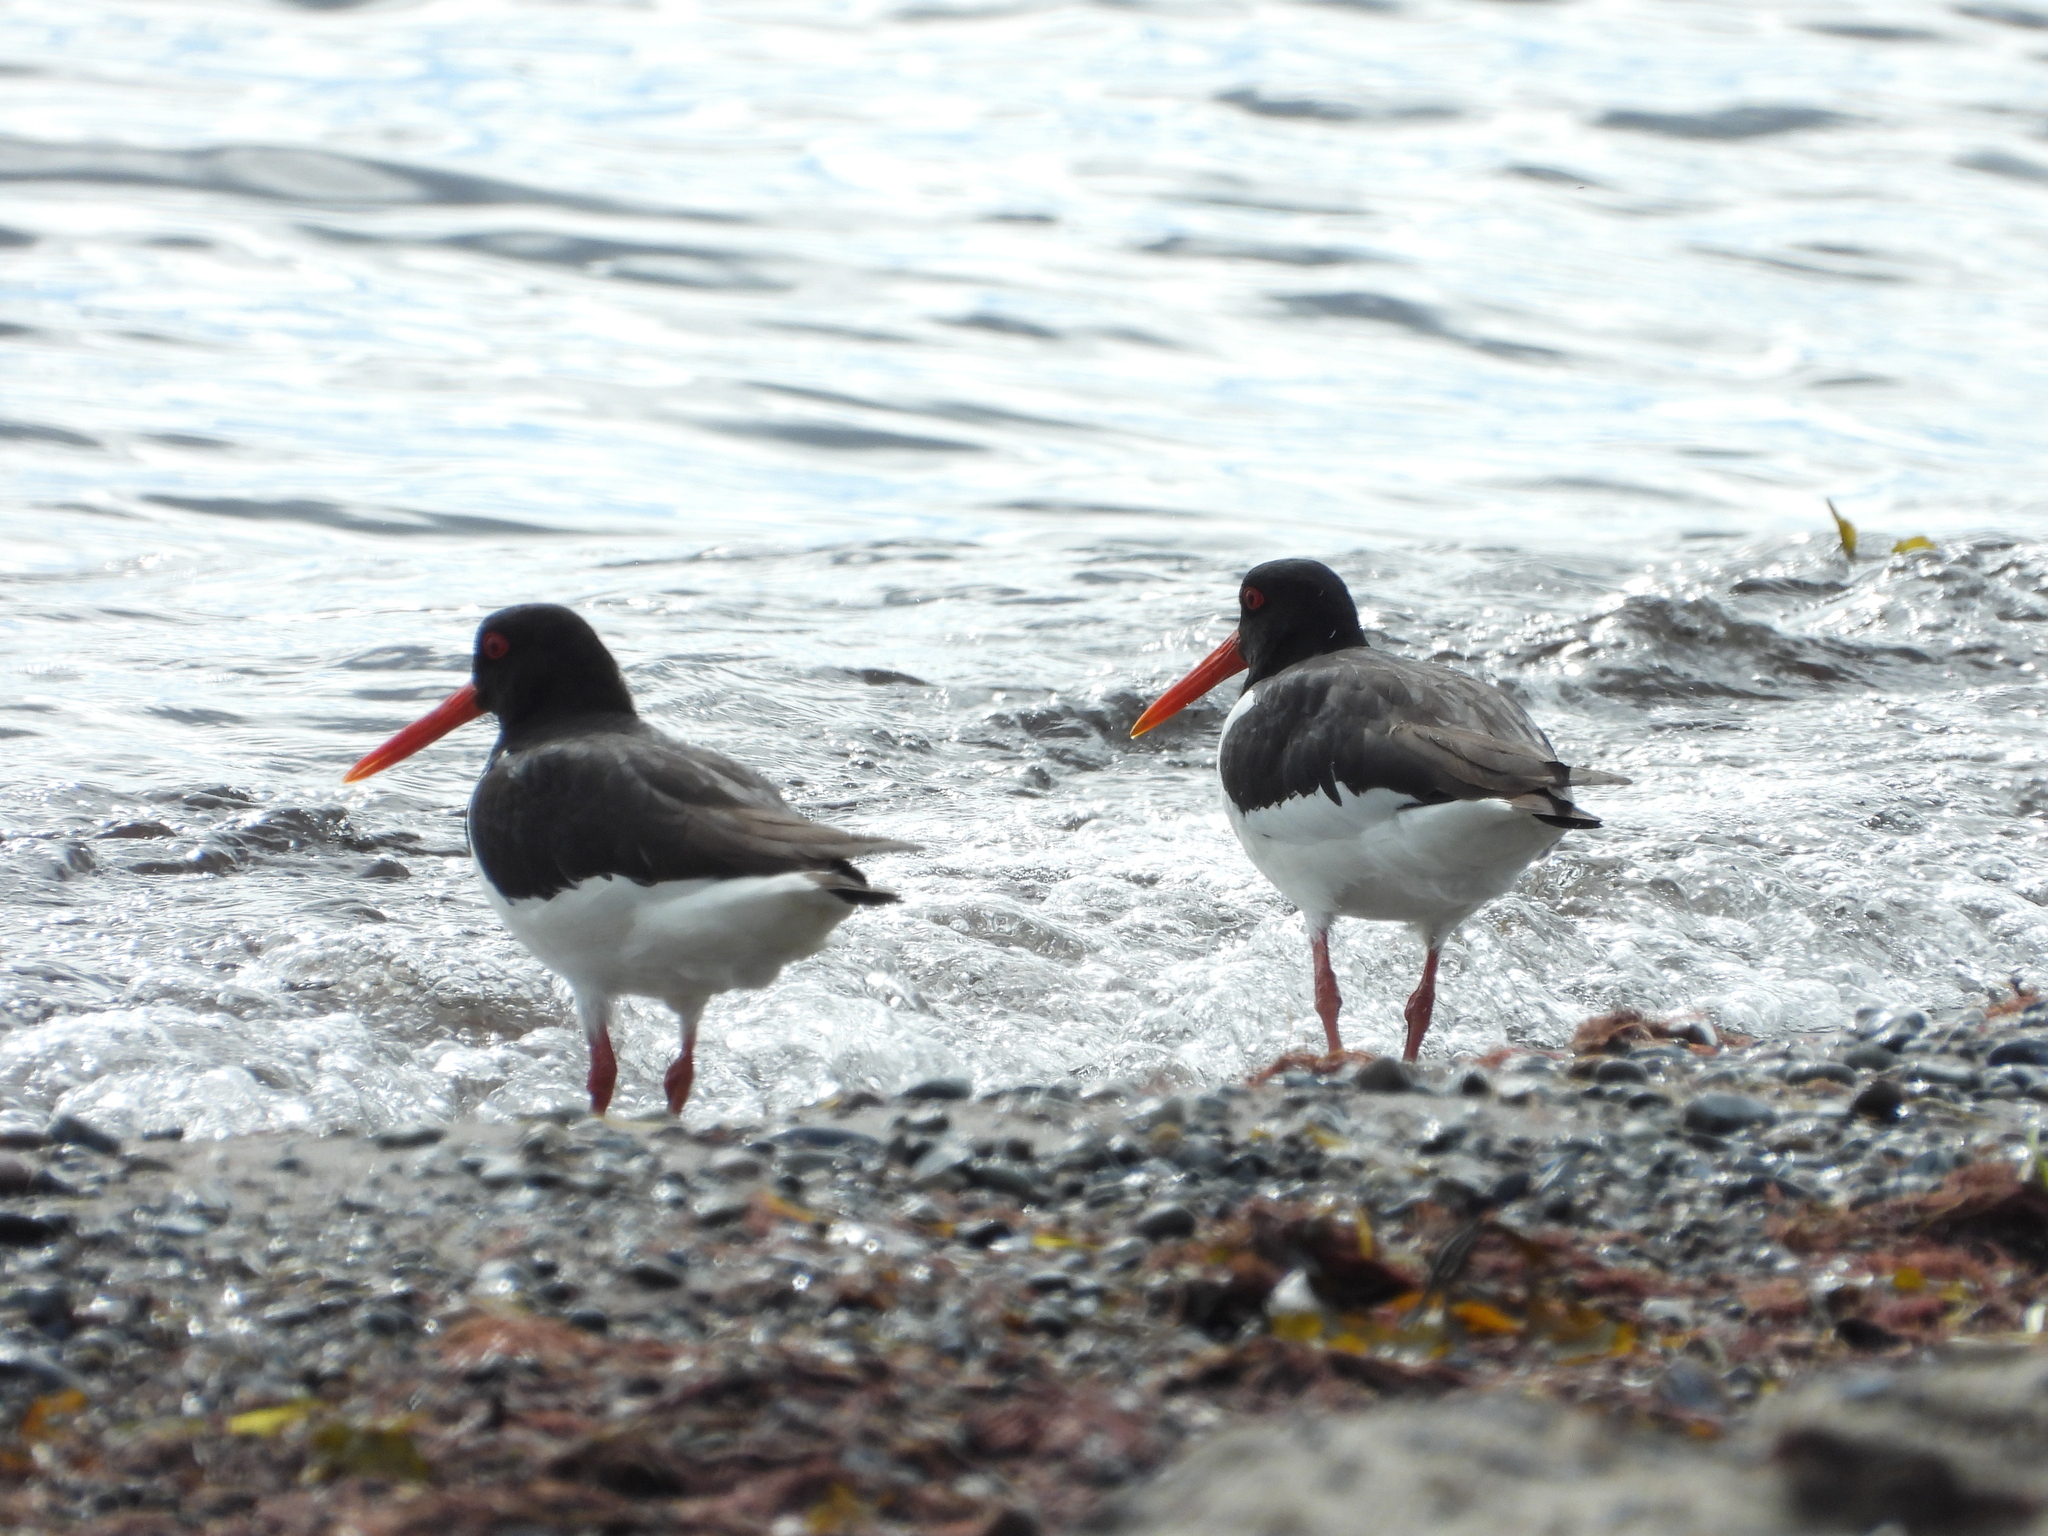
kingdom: Animalia
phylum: Chordata
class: Aves
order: Charadriiformes
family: Haematopodidae
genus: Haematopus
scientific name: Haematopus ostralegus
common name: Eurasian oystercatcher
